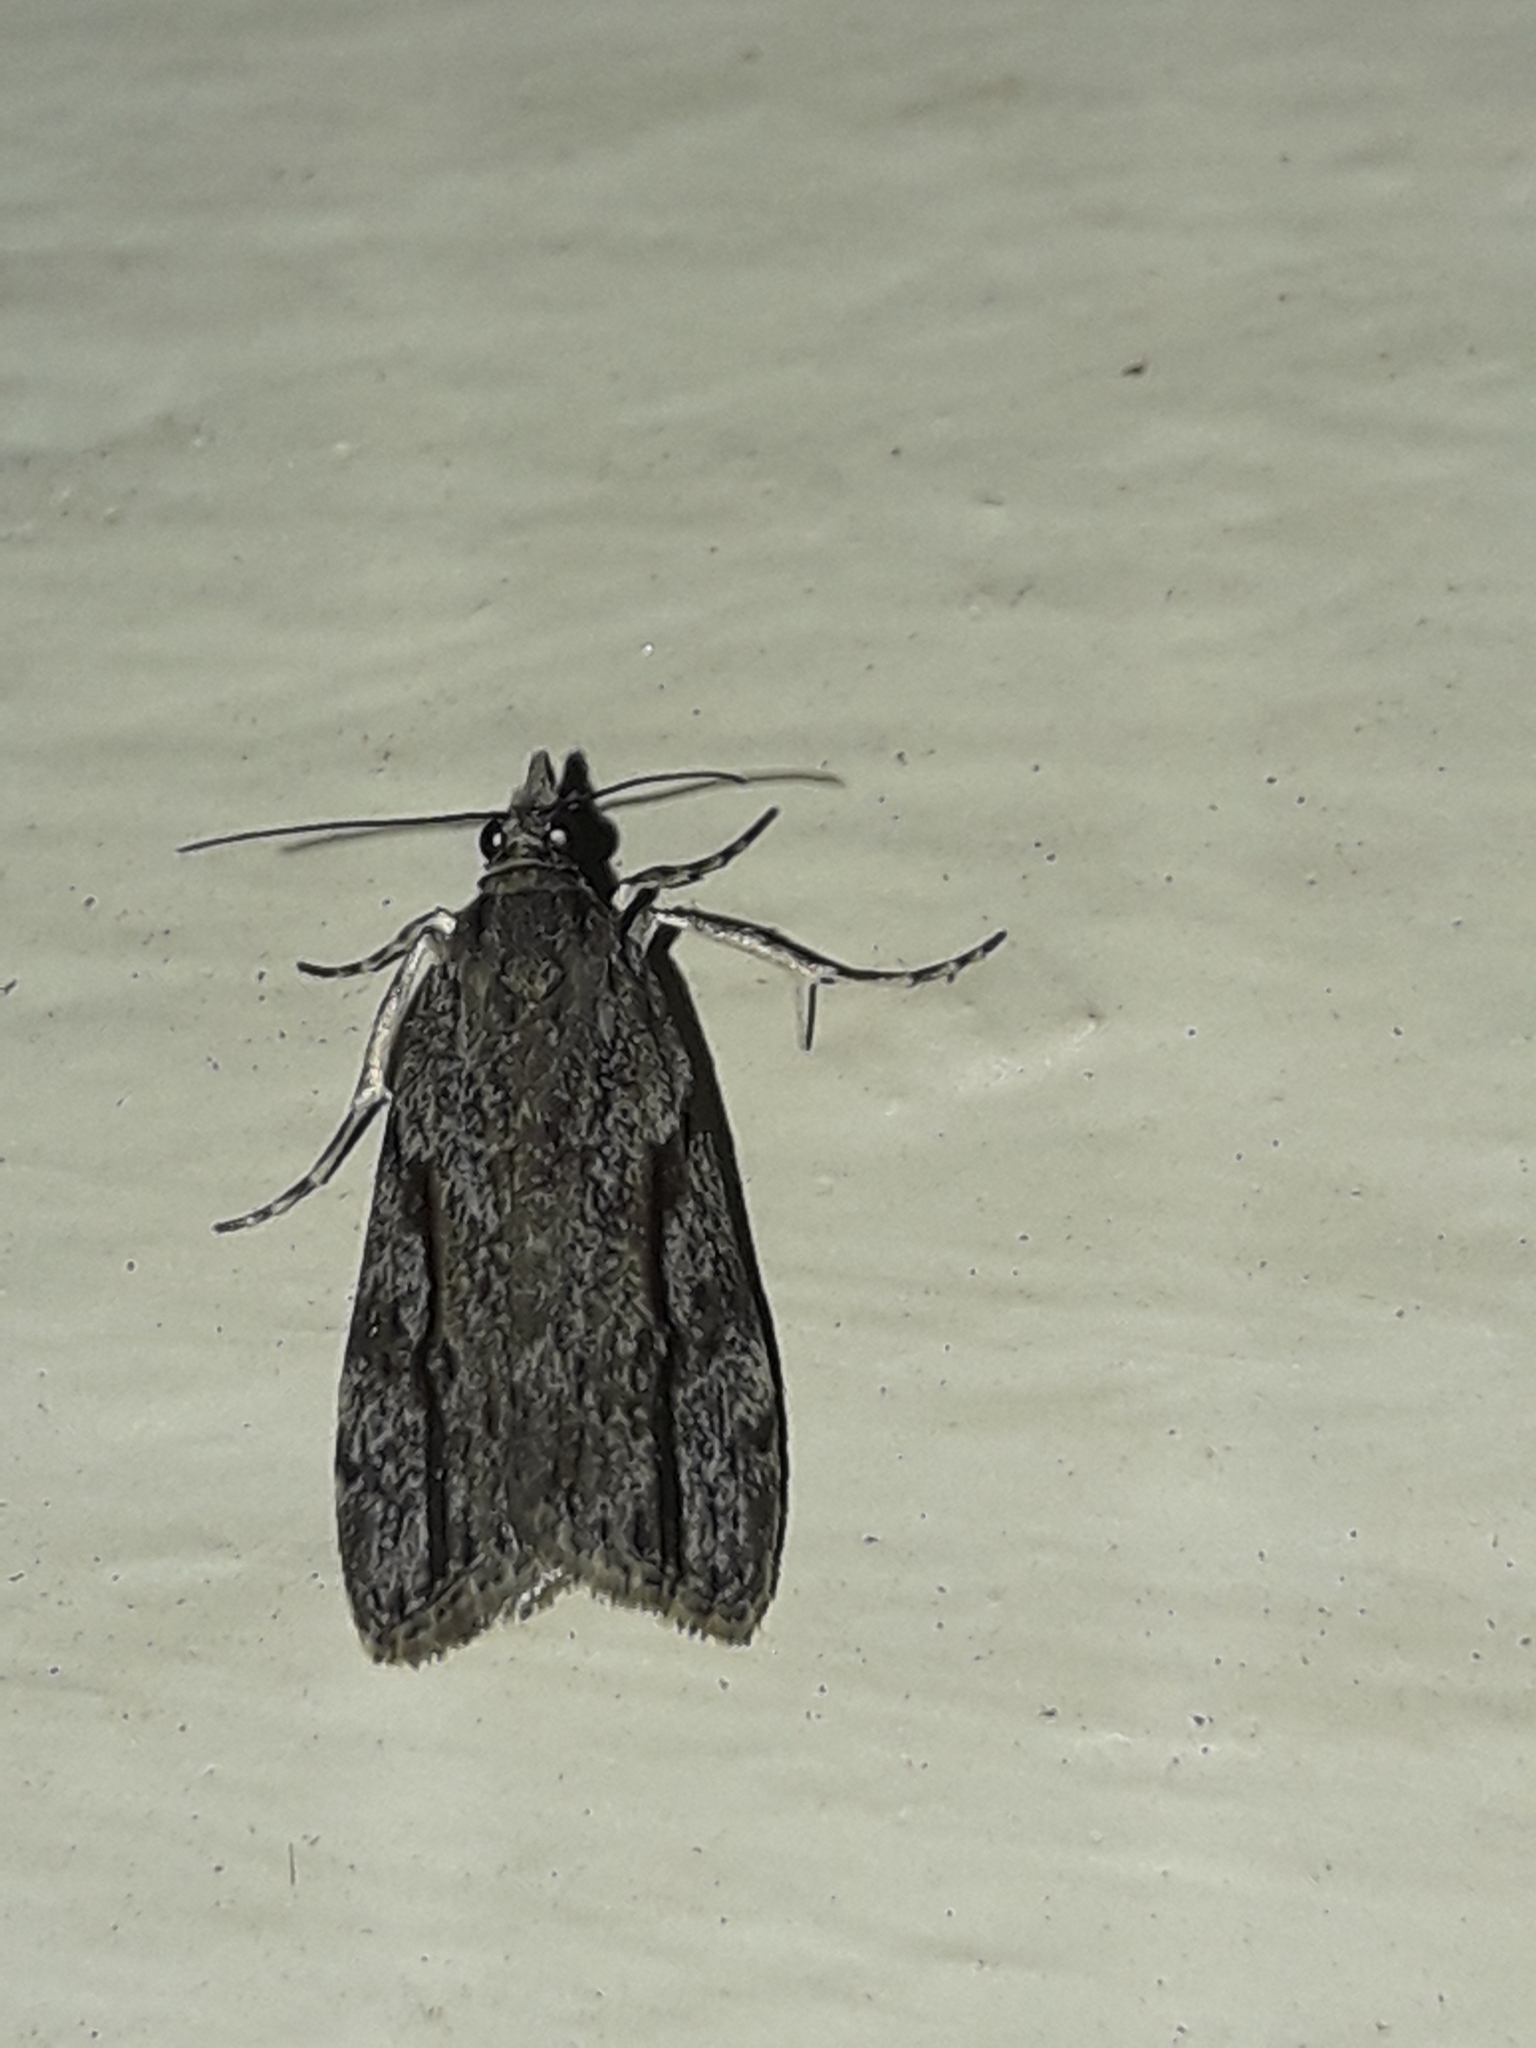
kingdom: Animalia
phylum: Arthropoda
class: Insecta
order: Lepidoptera
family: Crambidae
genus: Eudonia
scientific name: Eudonia bisinualis
